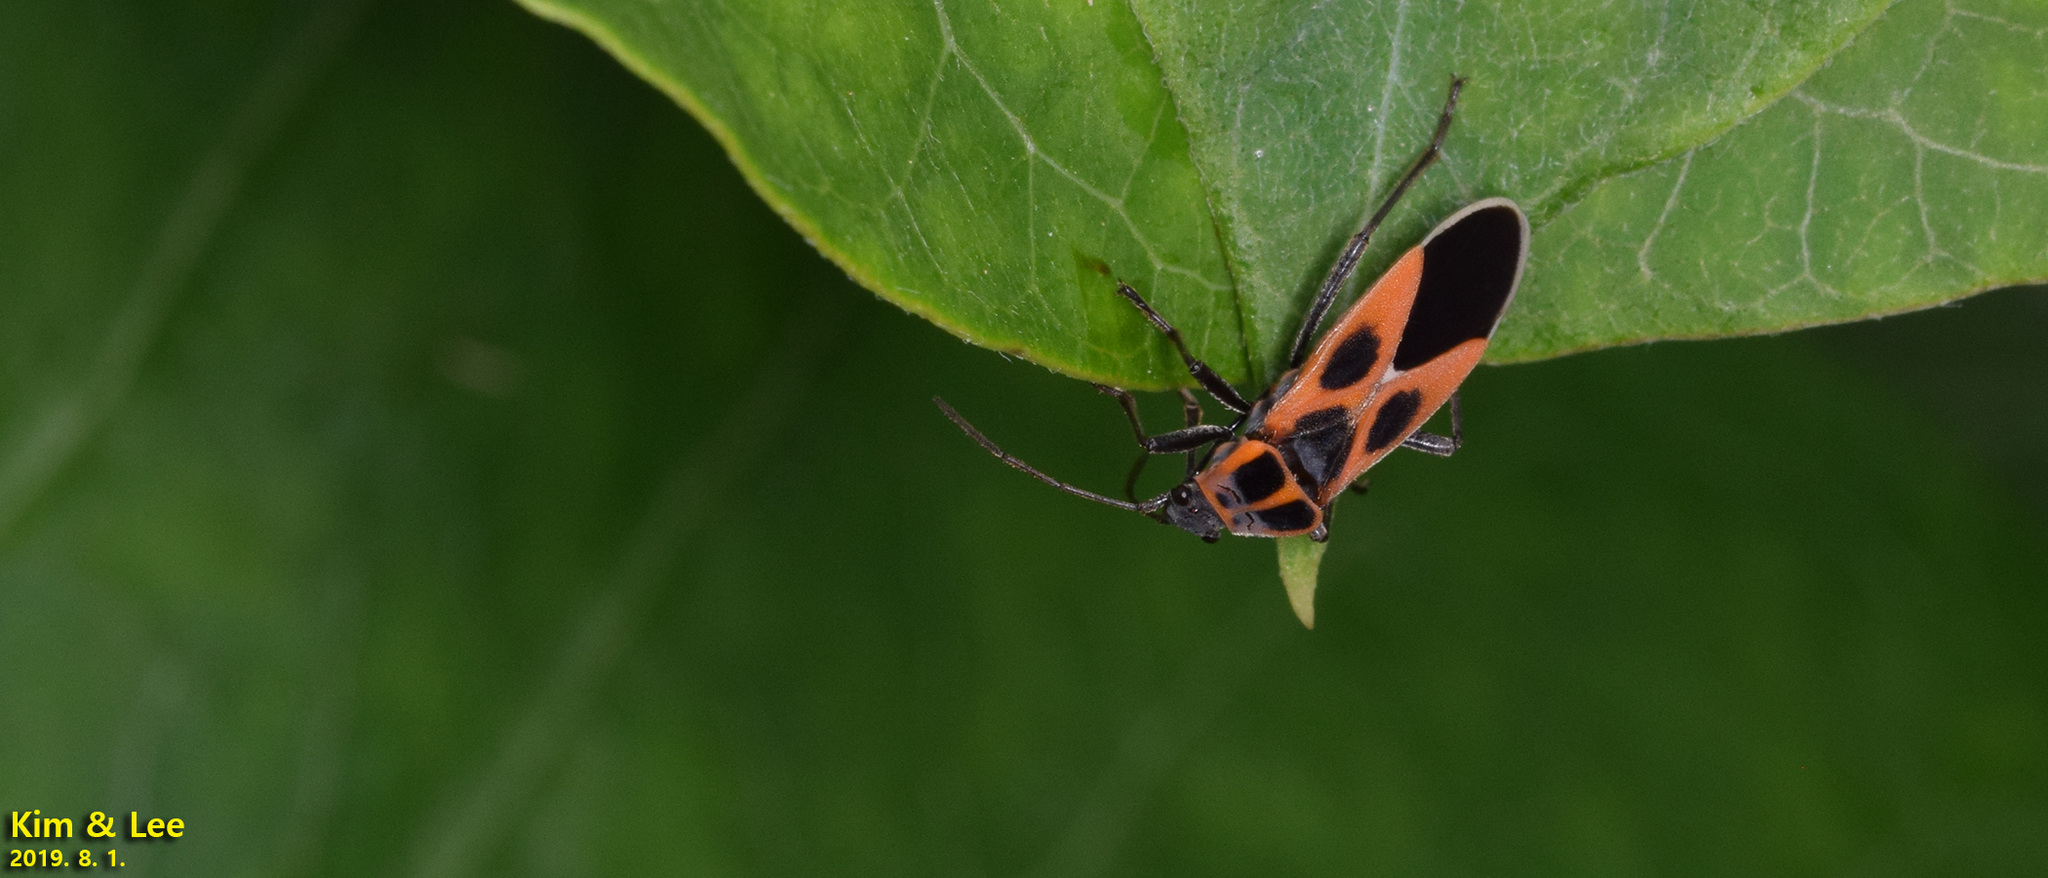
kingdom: Animalia
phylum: Arthropoda
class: Insecta
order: Hemiptera
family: Lygaeidae
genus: Tropidothorax
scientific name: Tropidothorax cruciger
